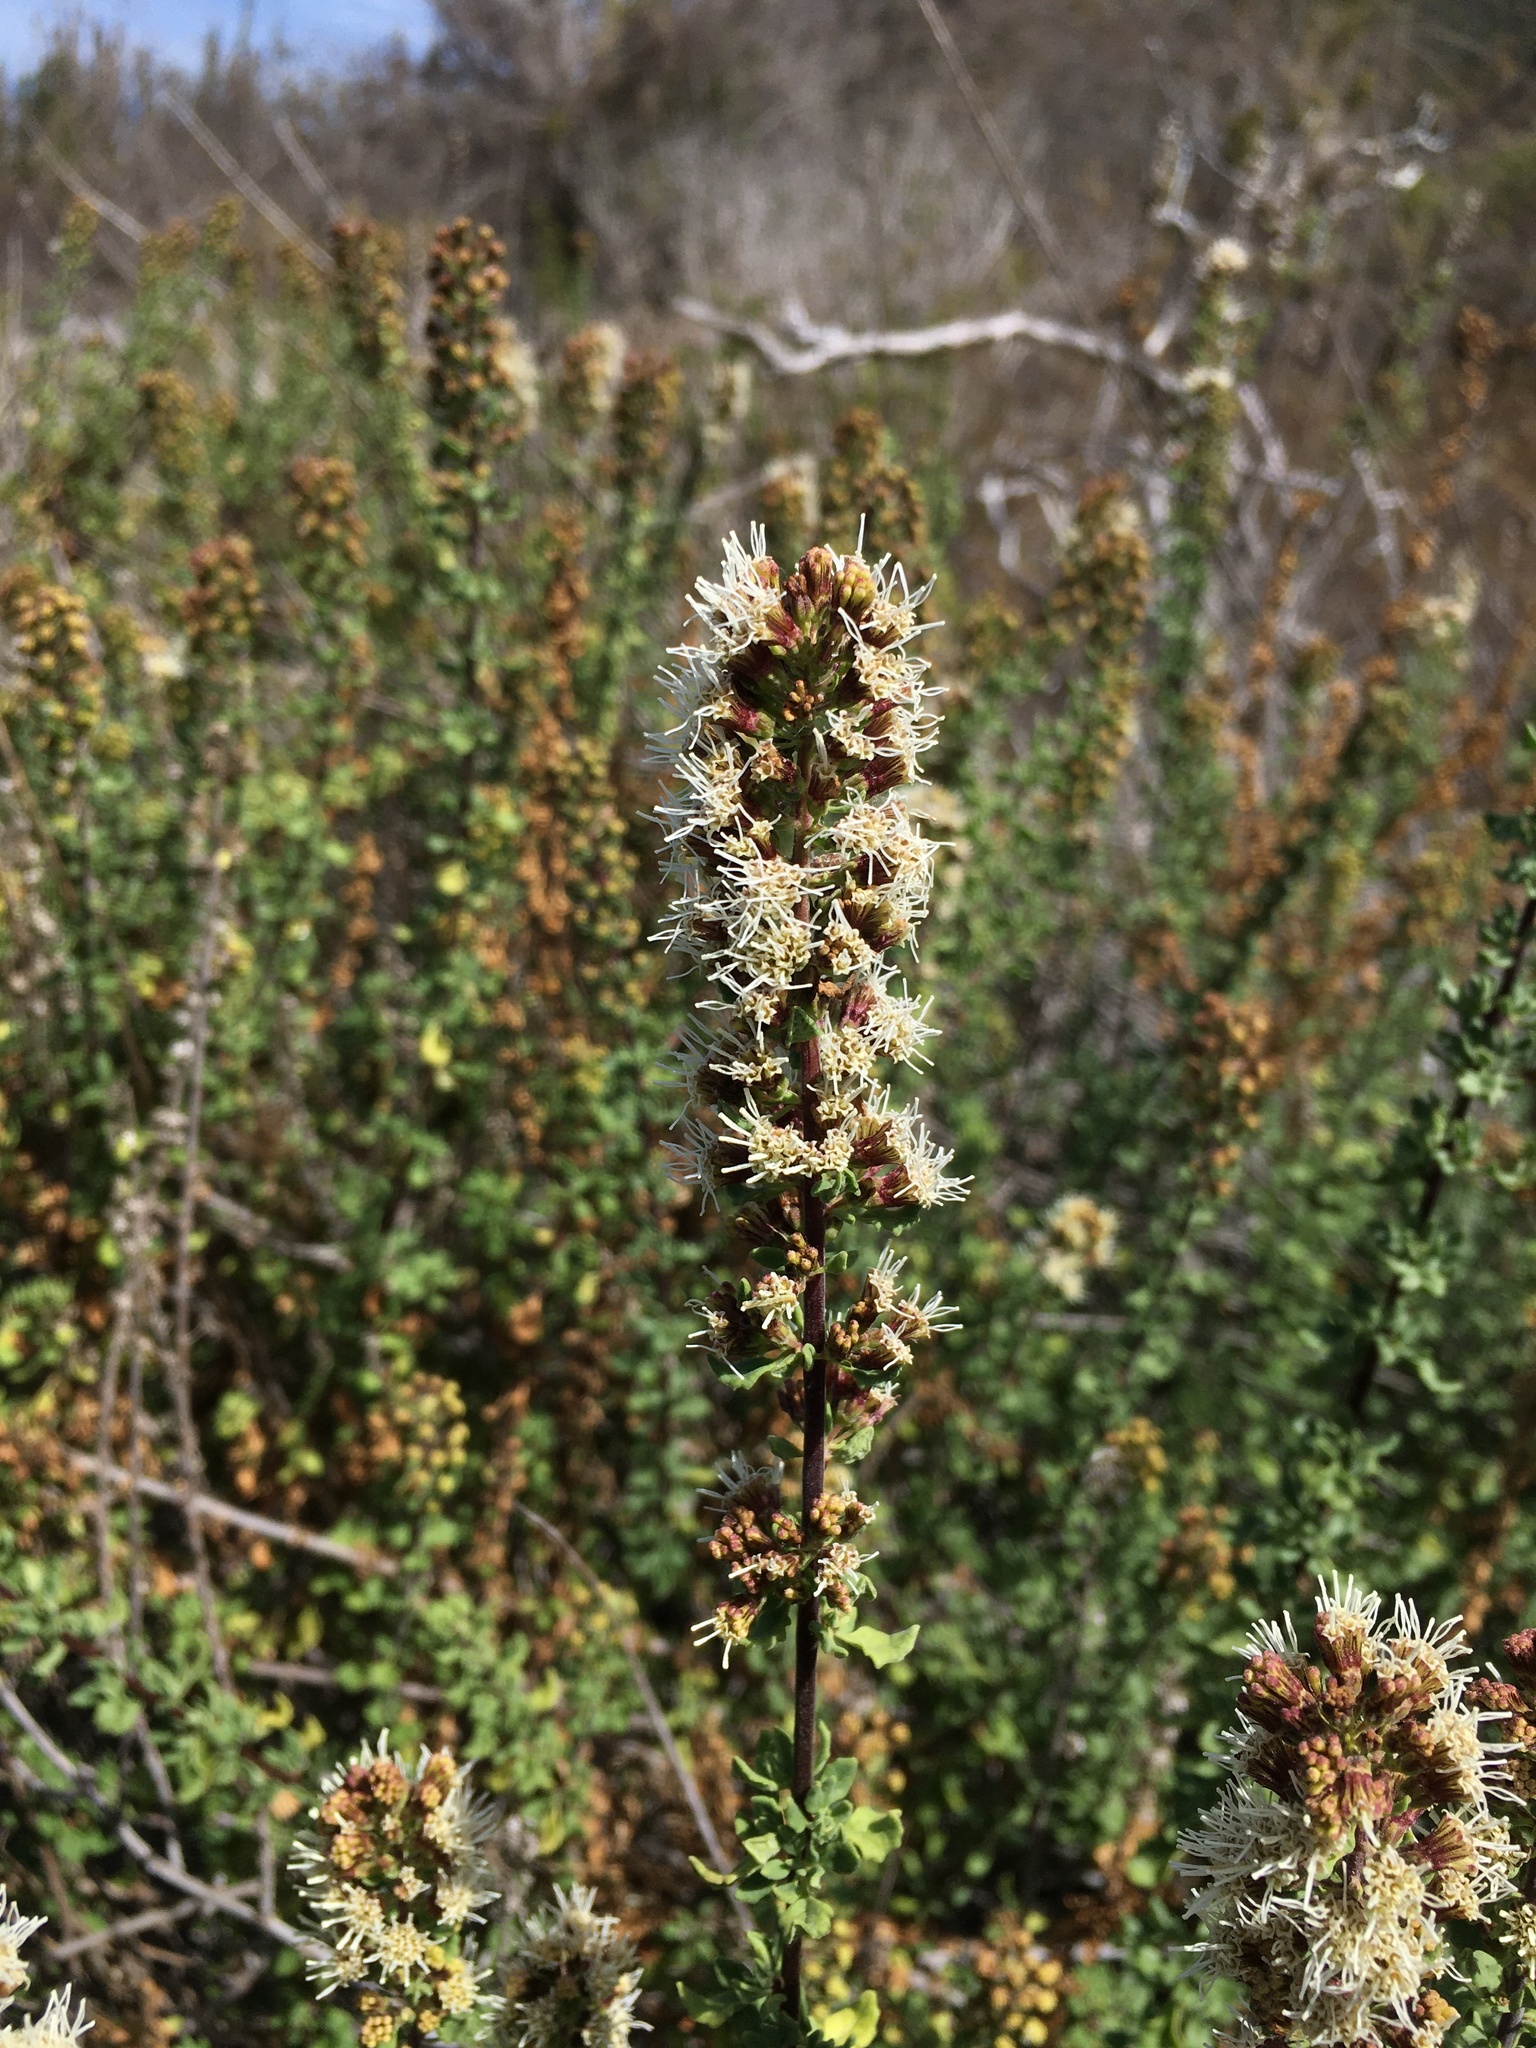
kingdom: Plantae
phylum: Tracheophyta
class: Magnoliopsida
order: Asterales
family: Asteraceae
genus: Ophryosporus
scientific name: Ophryosporus triangularis
